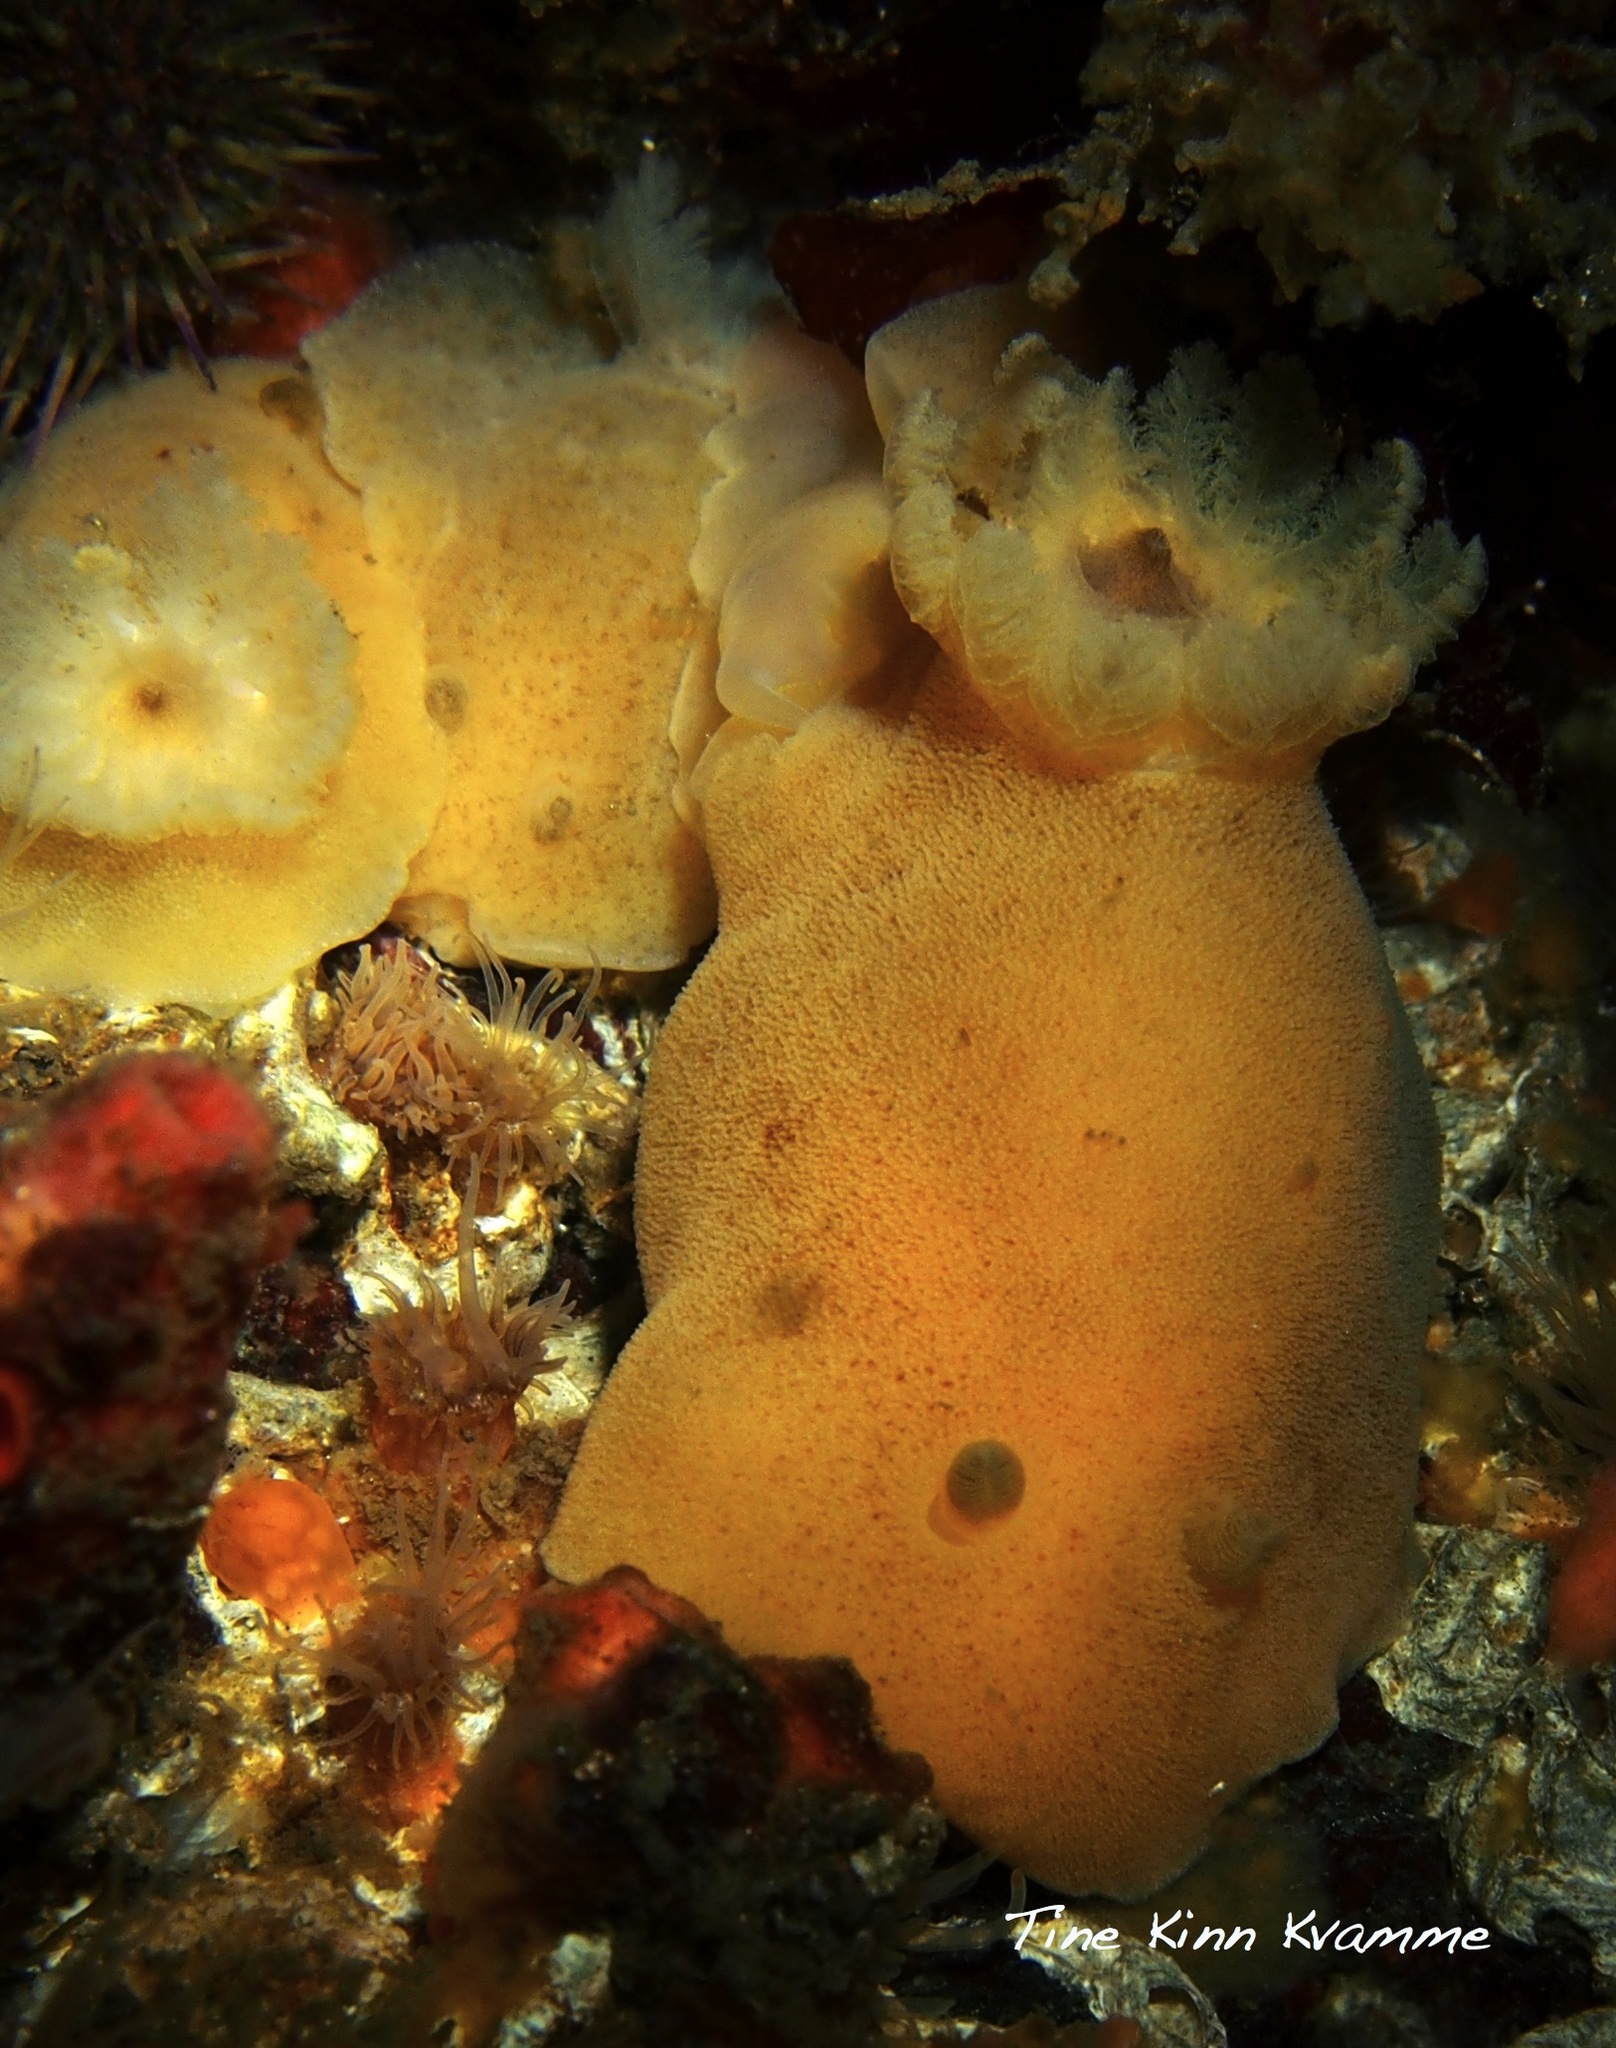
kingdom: Animalia
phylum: Mollusca
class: Gastropoda
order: Nudibranchia
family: Discodorididae
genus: Jorunna
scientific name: Jorunna tomentosa
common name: Grey sea slug
